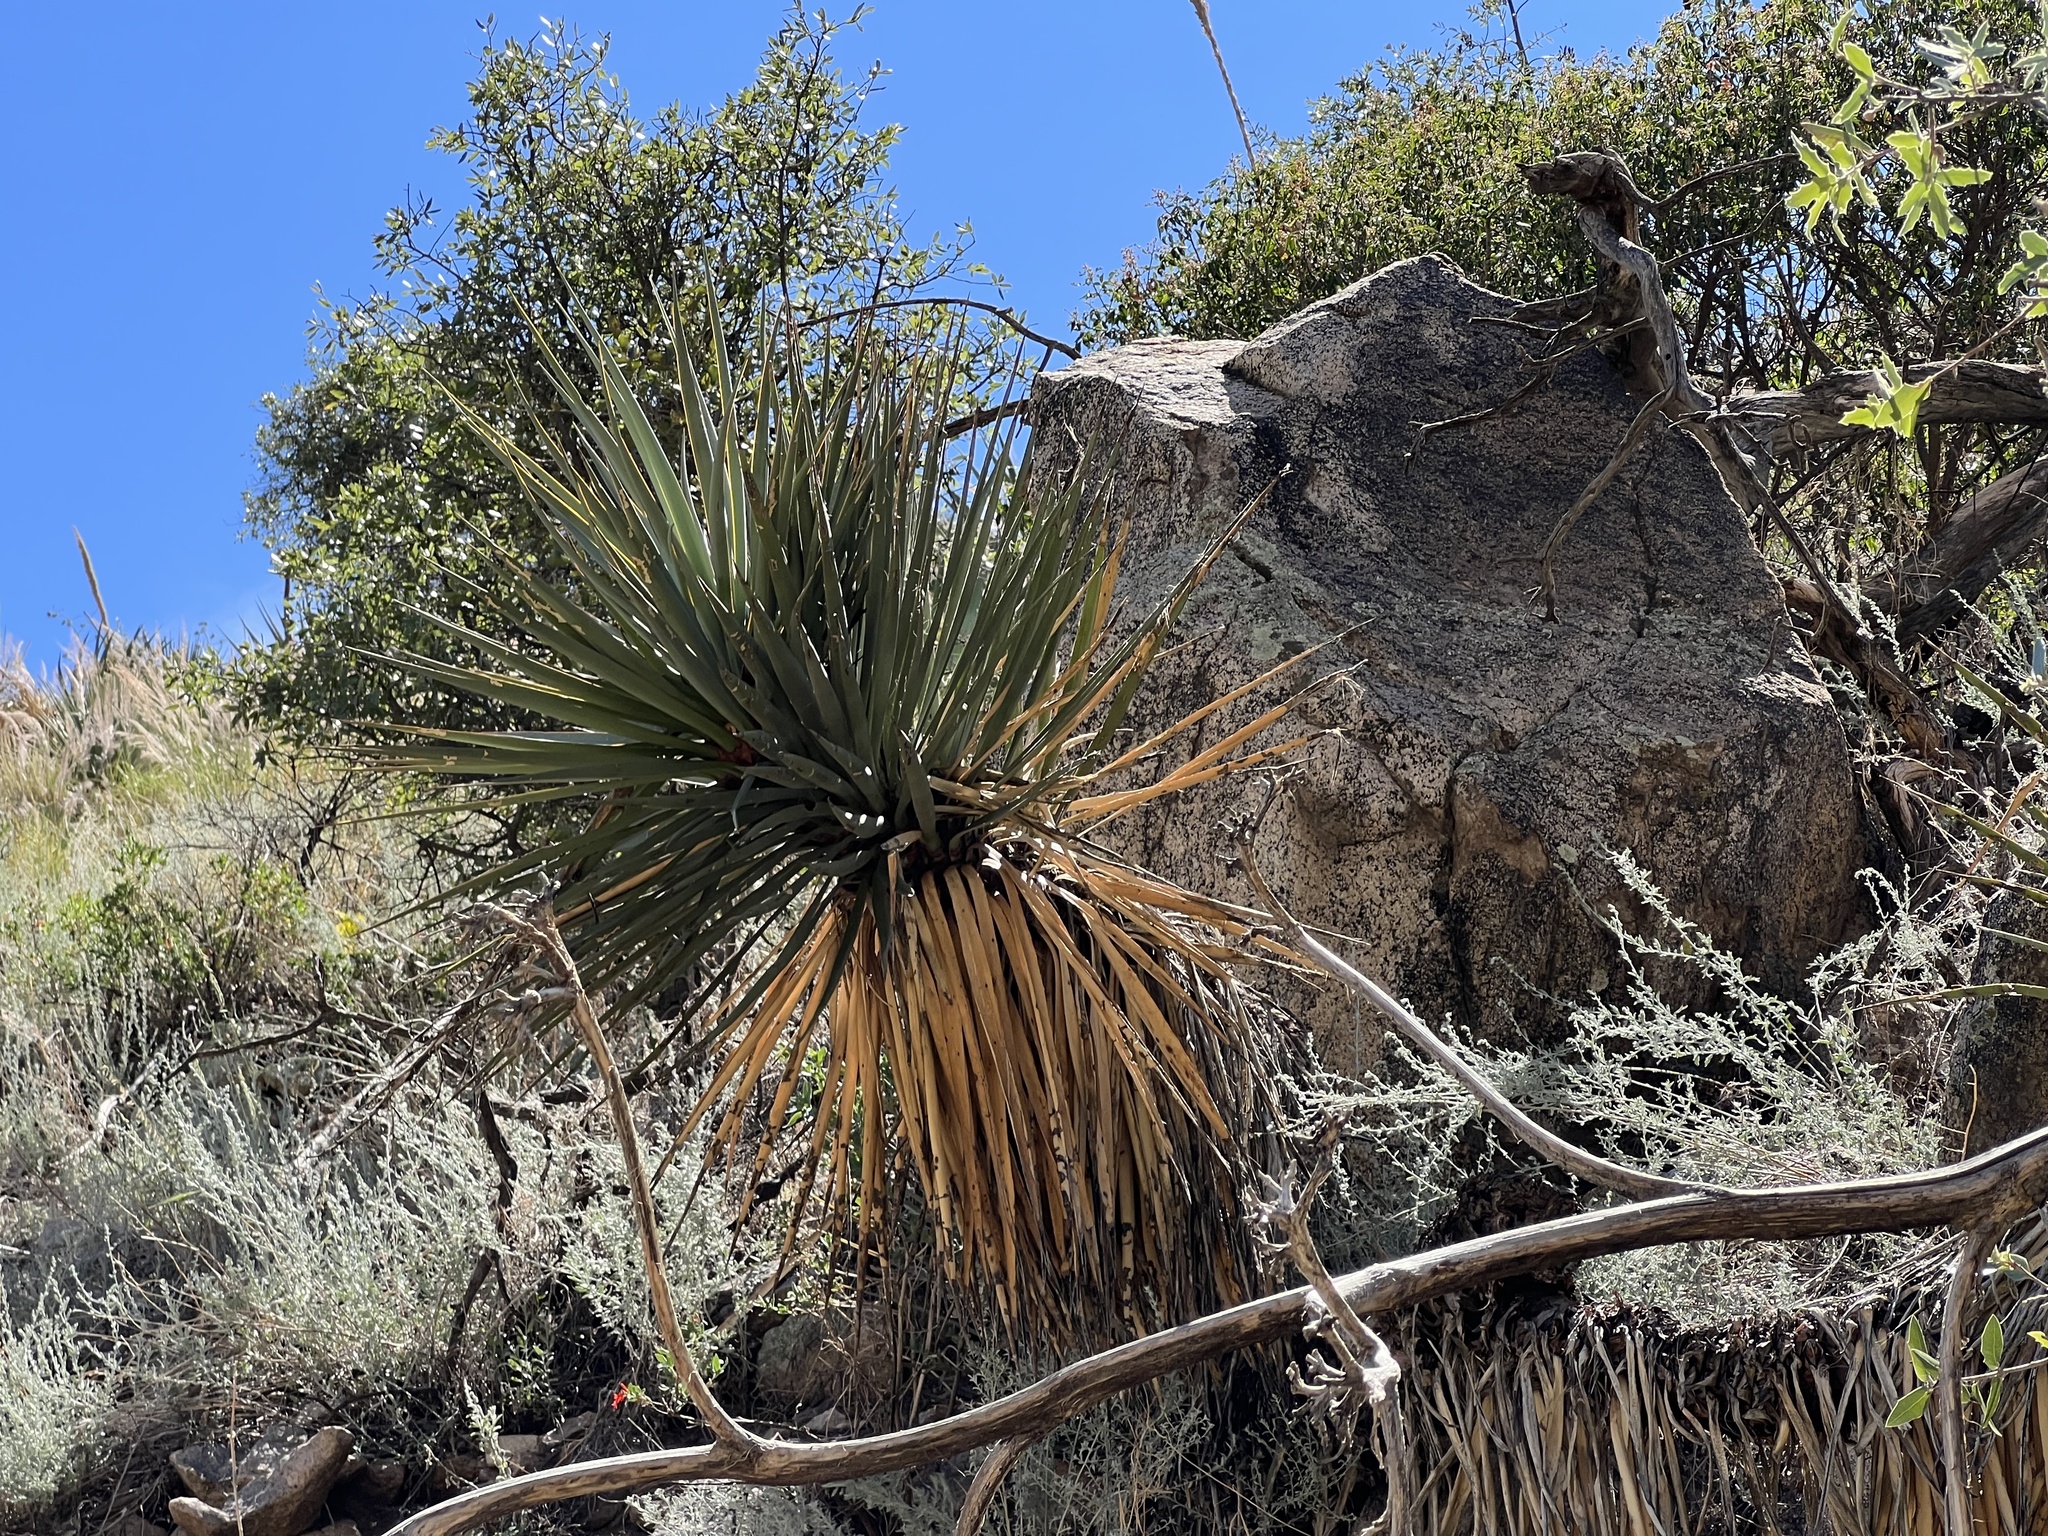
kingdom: Plantae
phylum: Tracheophyta
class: Liliopsida
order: Asparagales
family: Asparagaceae
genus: Yucca
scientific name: Yucca schottii
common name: Hoary yucca
